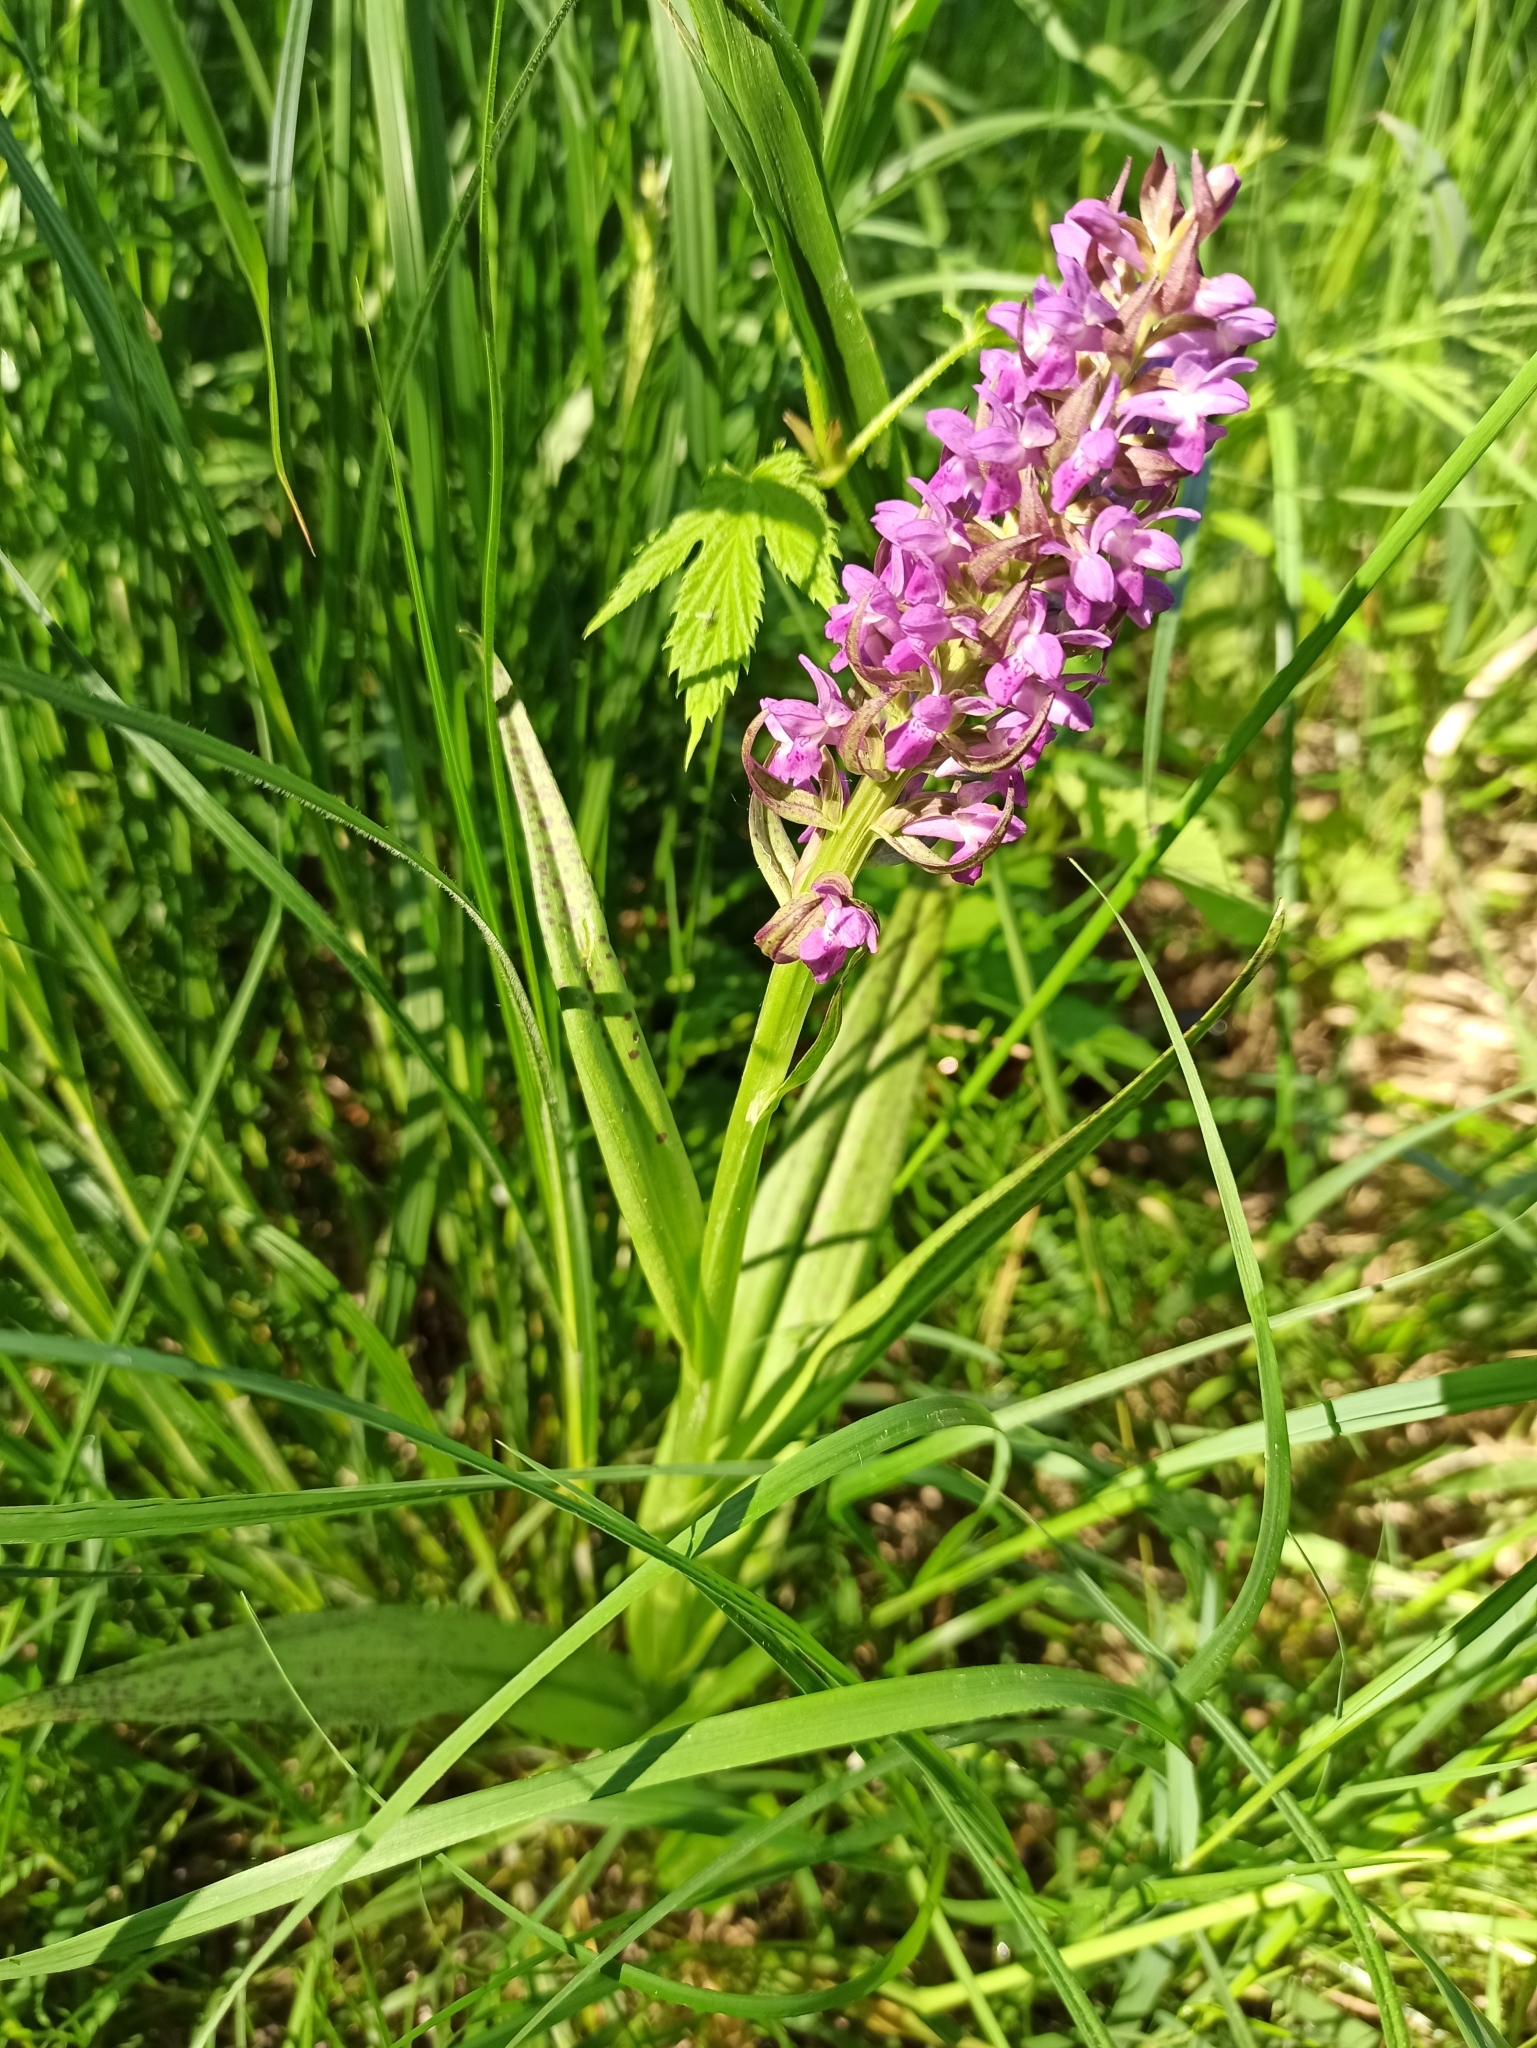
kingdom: Plantae
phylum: Tracheophyta
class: Liliopsida
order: Asparagales
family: Orchidaceae
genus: Dactylorhiza
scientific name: Dactylorhiza incarnata
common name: Early marsh-orchid
